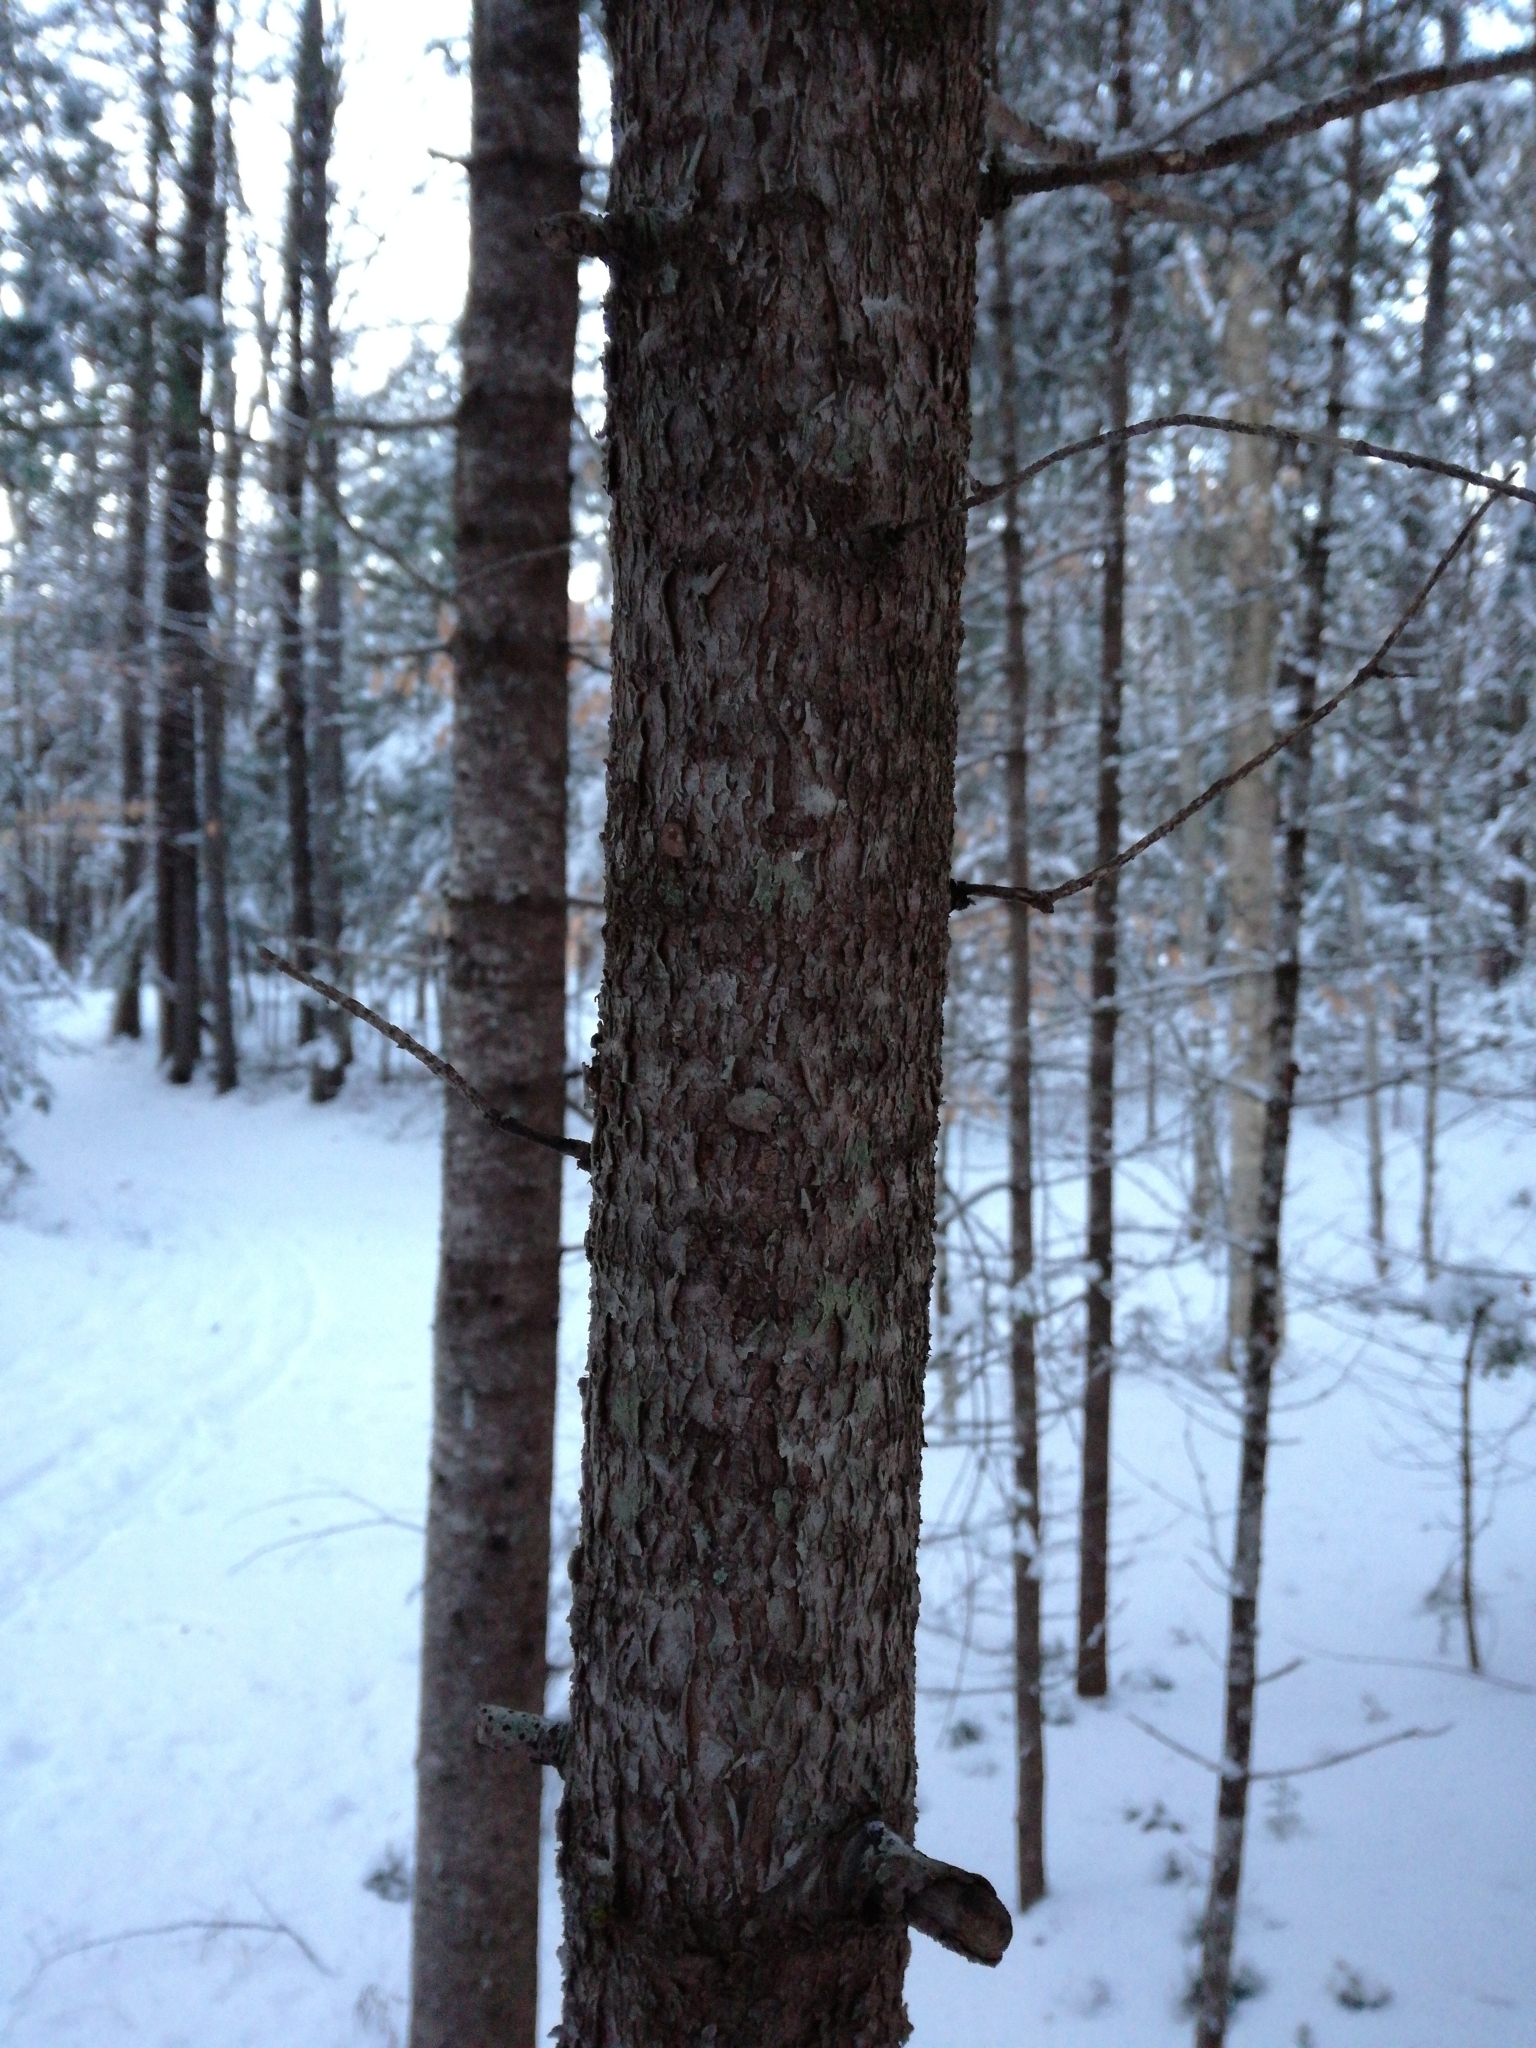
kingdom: Plantae
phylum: Tracheophyta
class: Pinopsida
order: Pinales
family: Pinaceae
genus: Abies
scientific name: Abies balsamea
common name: Balsam fir
